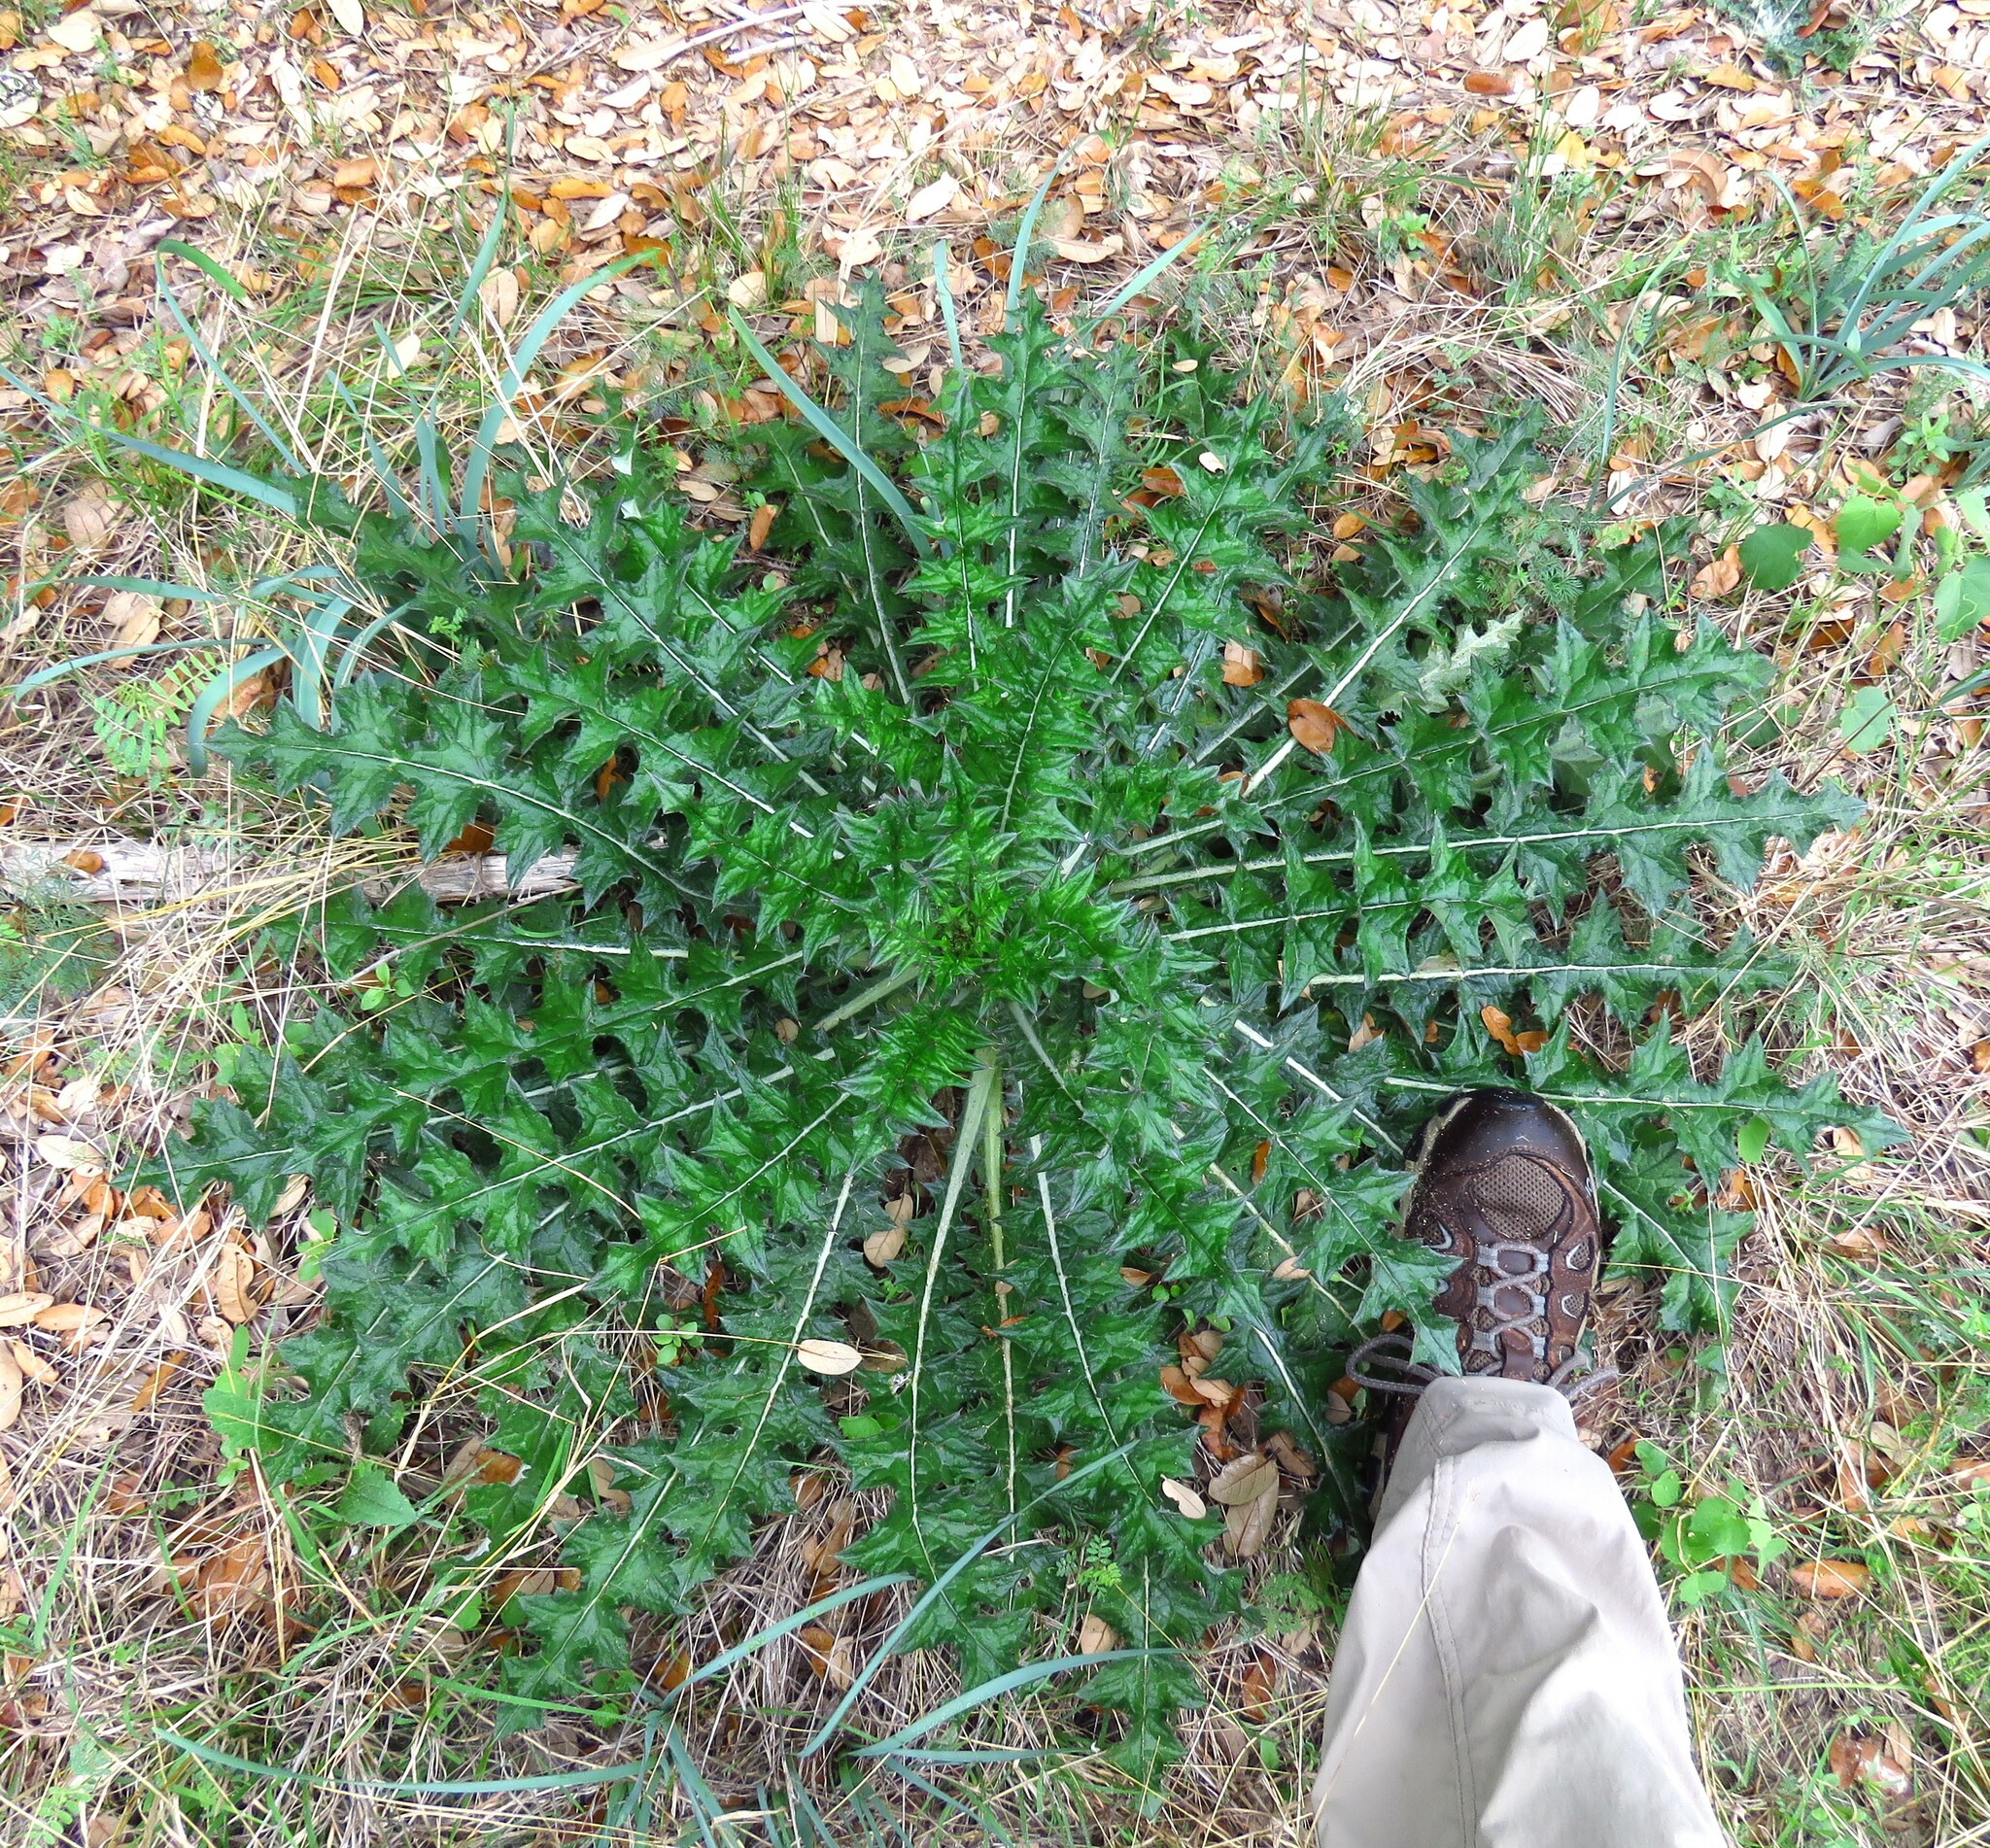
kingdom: Plantae
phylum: Tracheophyta
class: Magnoliopsida
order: Asterales
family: Asteraceae
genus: Cirsium
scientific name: Cirsium texanum
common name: Texas purple thistle
